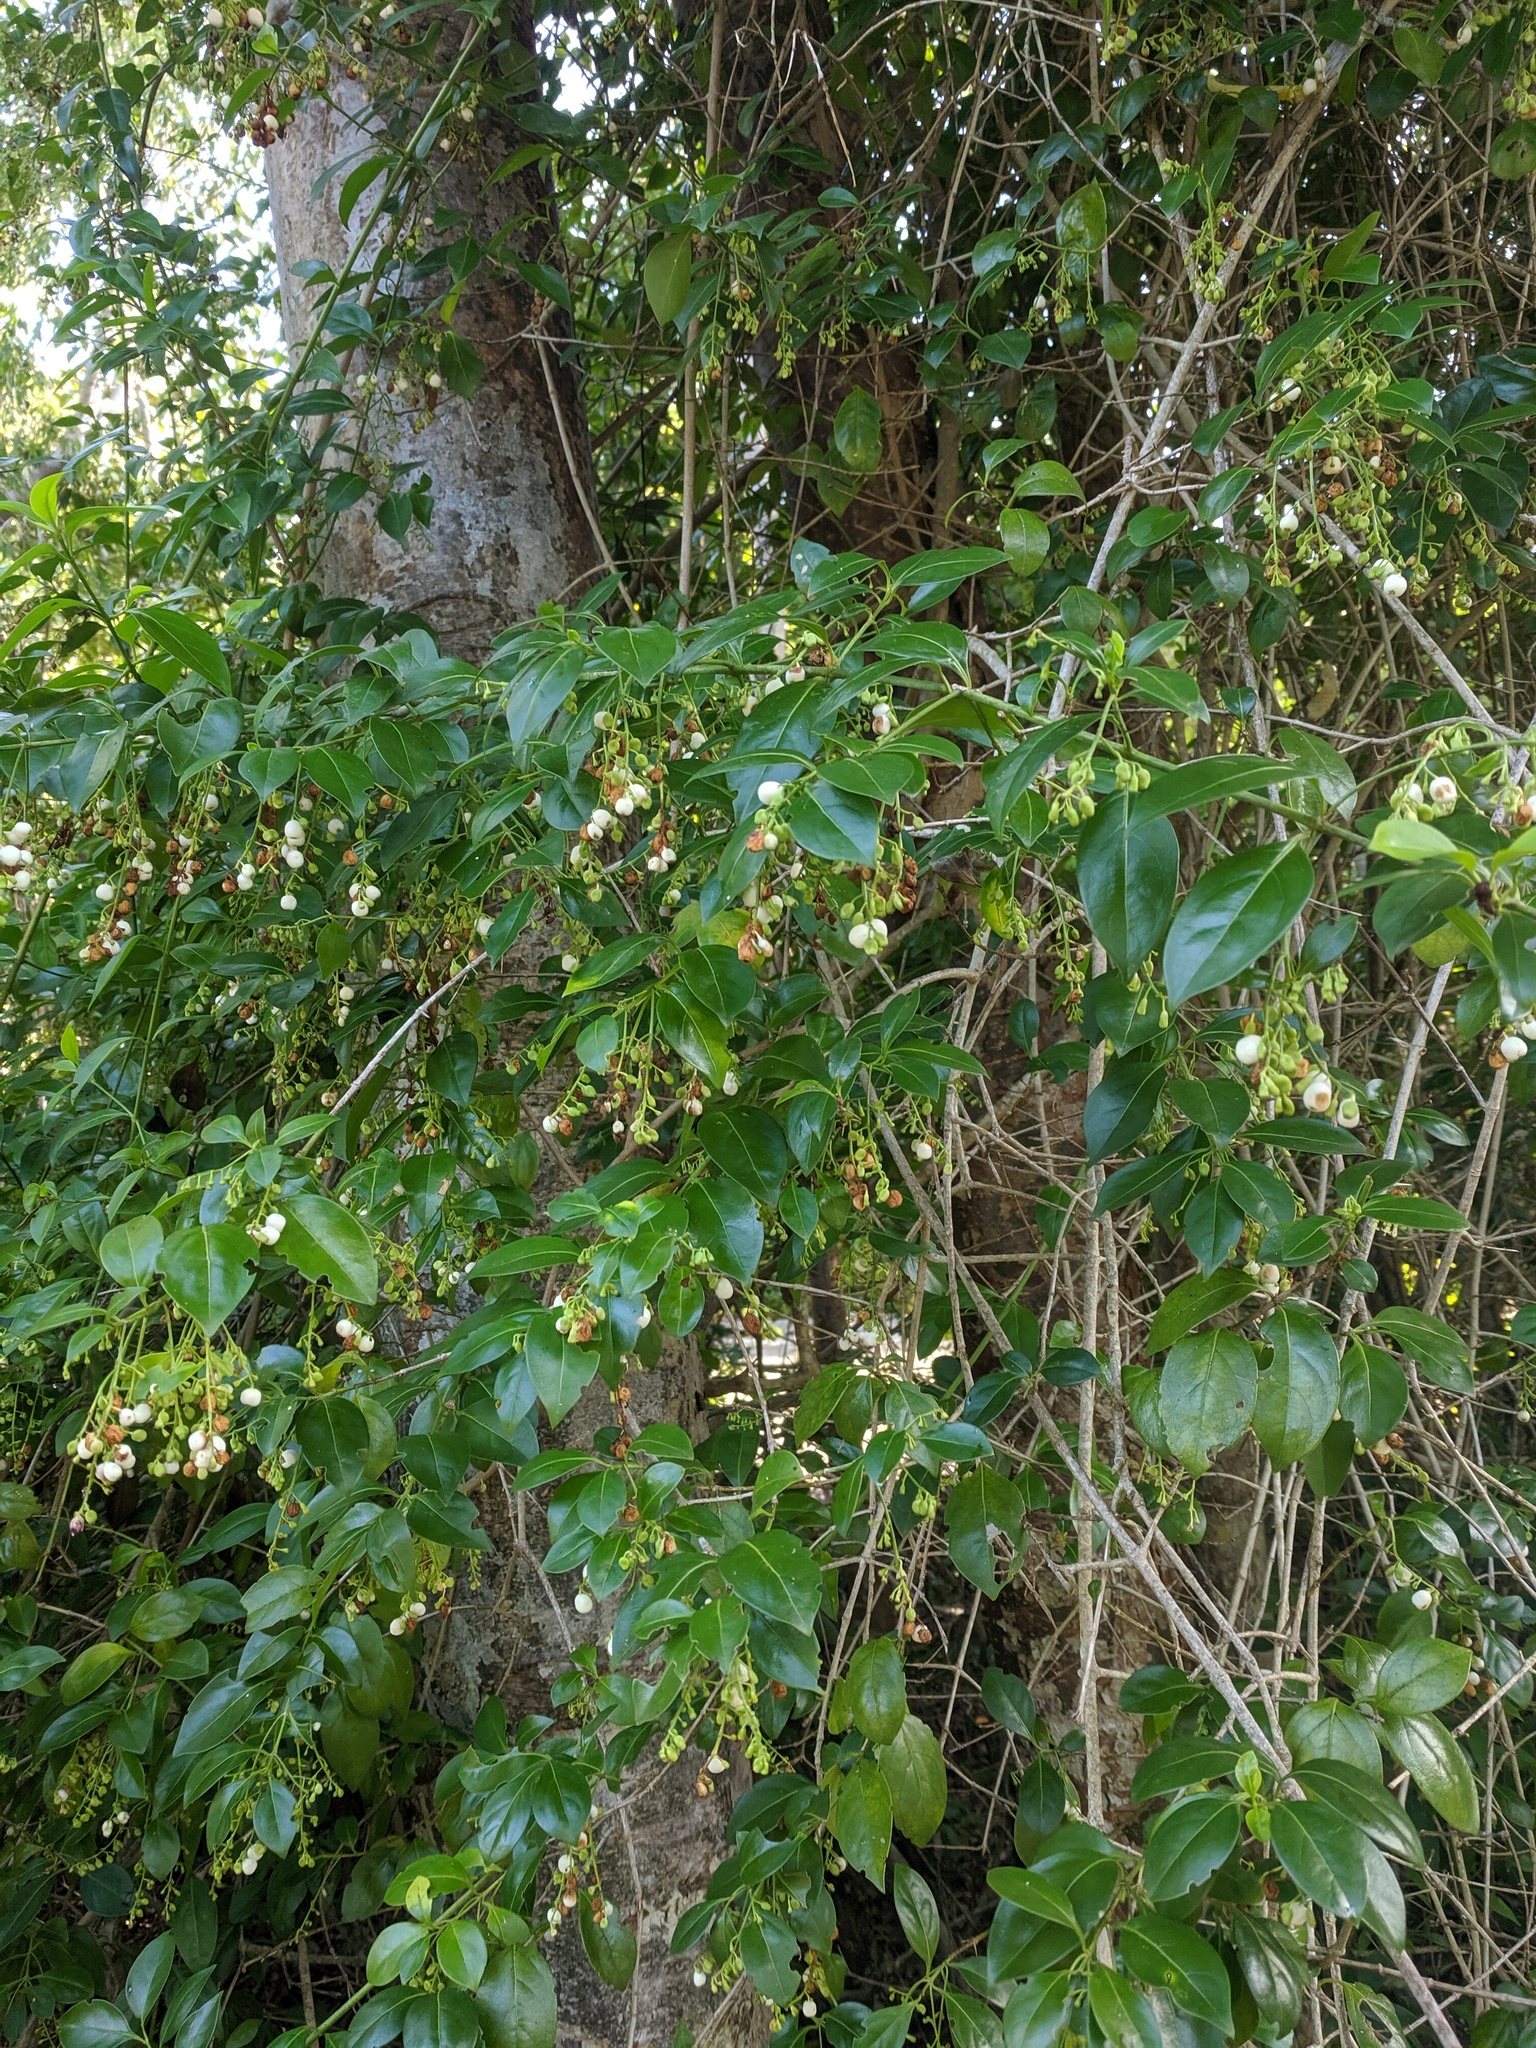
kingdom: Plantae
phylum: Tracheophyta
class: Magnoliopsida
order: Gentianales
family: Rubiaceae
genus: Chiococca
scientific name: Chiococca alba
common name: Snowberry
